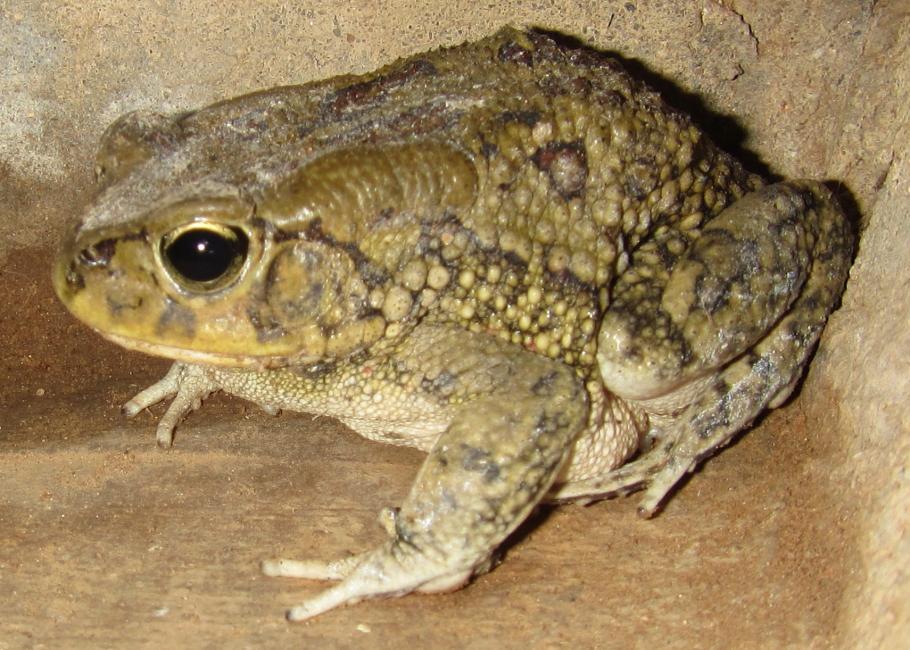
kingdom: Animalia
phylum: Chordata
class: Amphibia
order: Anura
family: Bufonidae
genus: Sclerophrys
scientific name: Sclerophrys garmani
